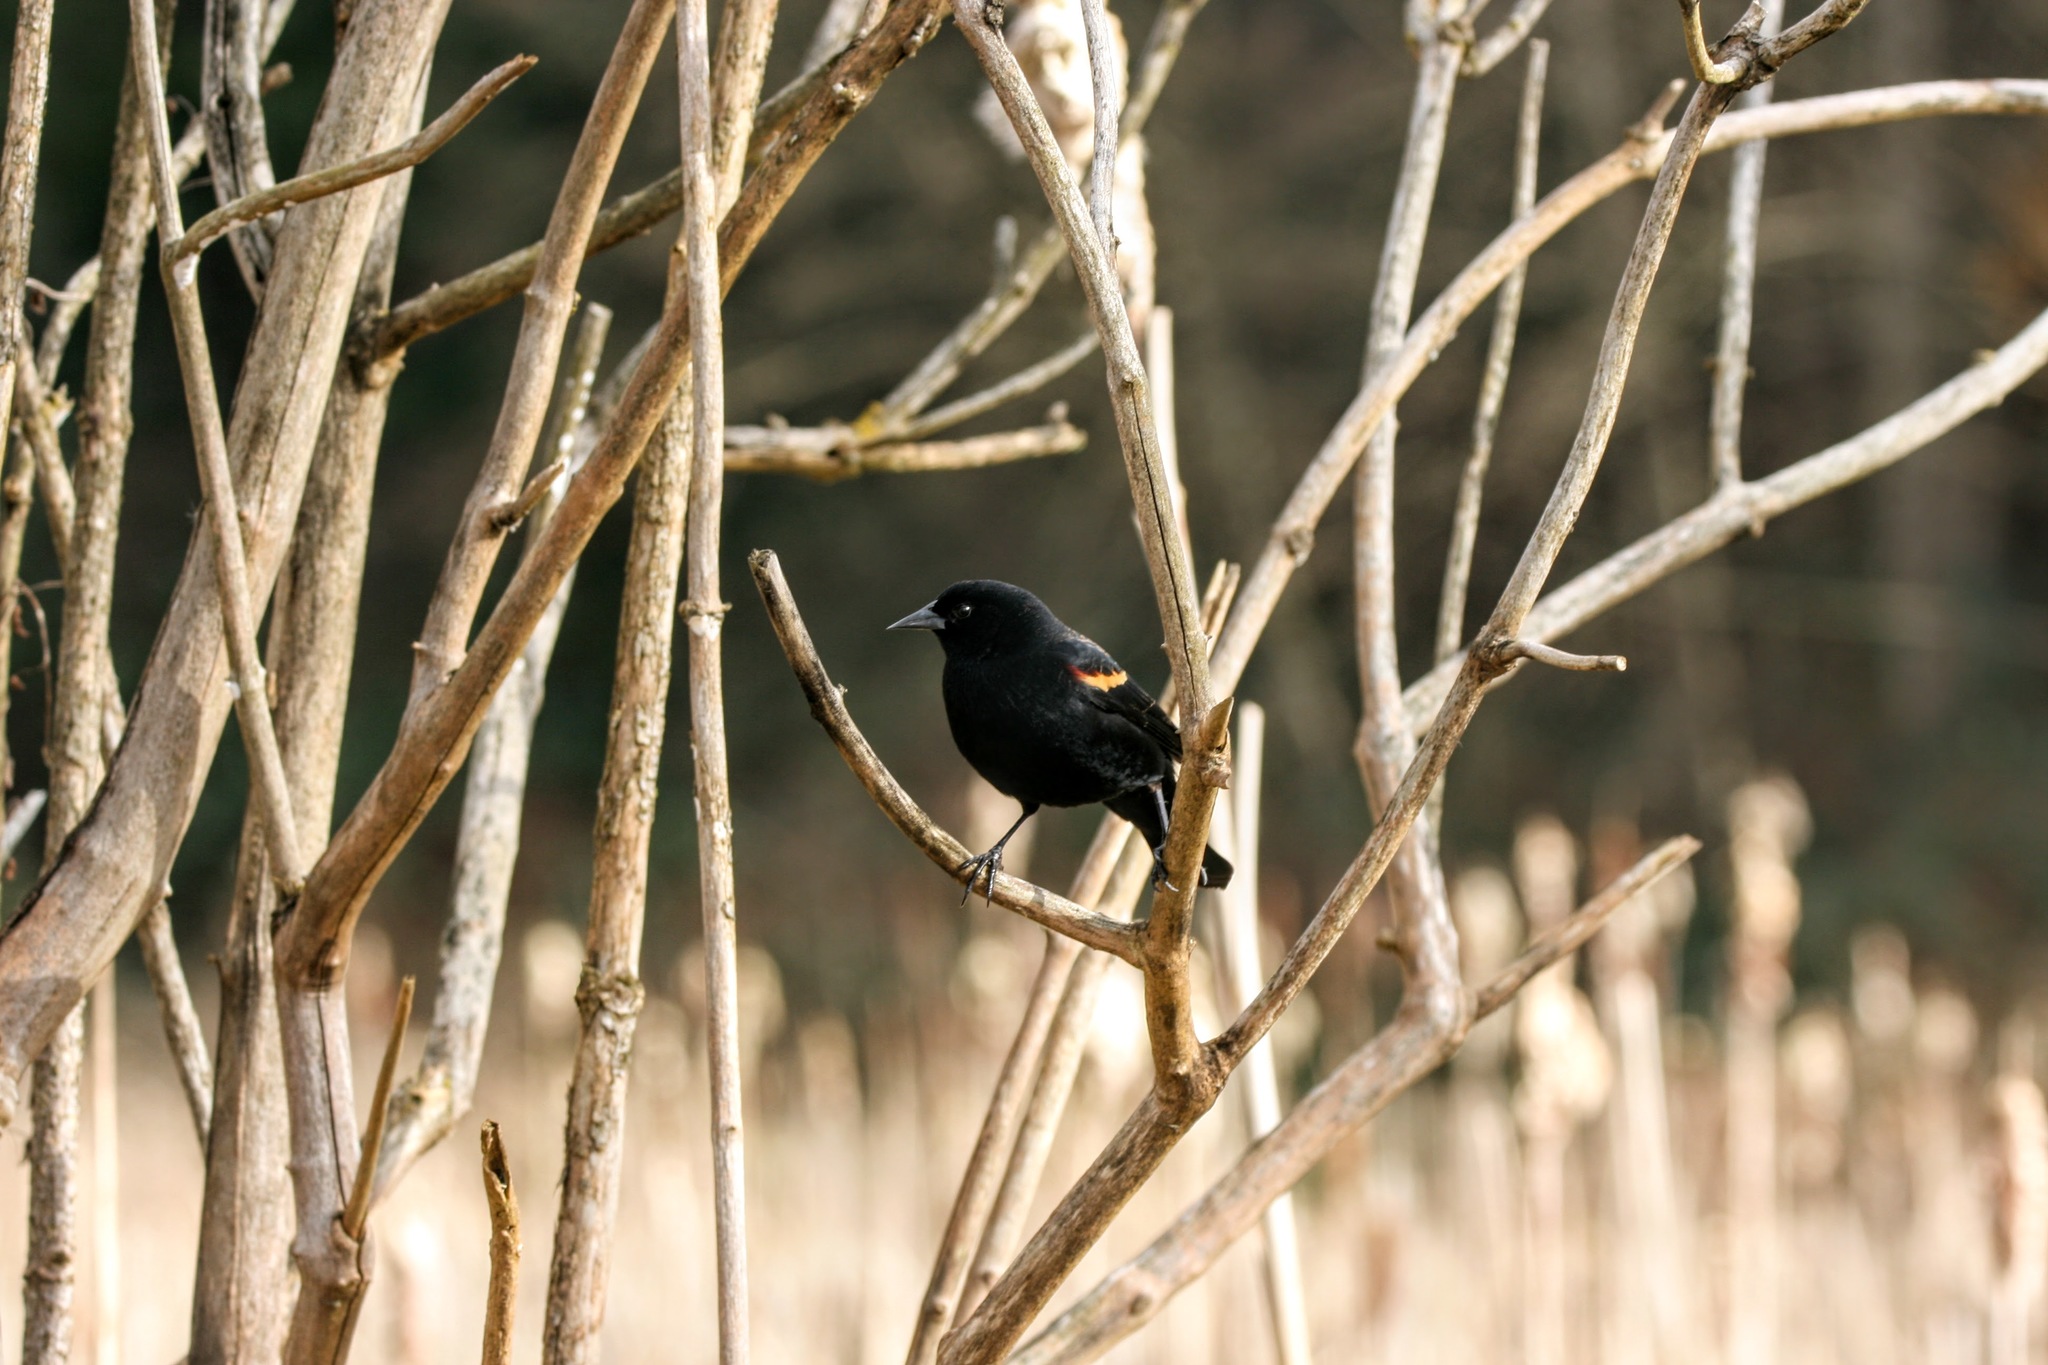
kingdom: Animalia
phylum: Chordata
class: Aves
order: Passeriformes
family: Icteridae
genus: Agelaius
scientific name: Agelaius phoeniceus
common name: Red-winged blackbird
